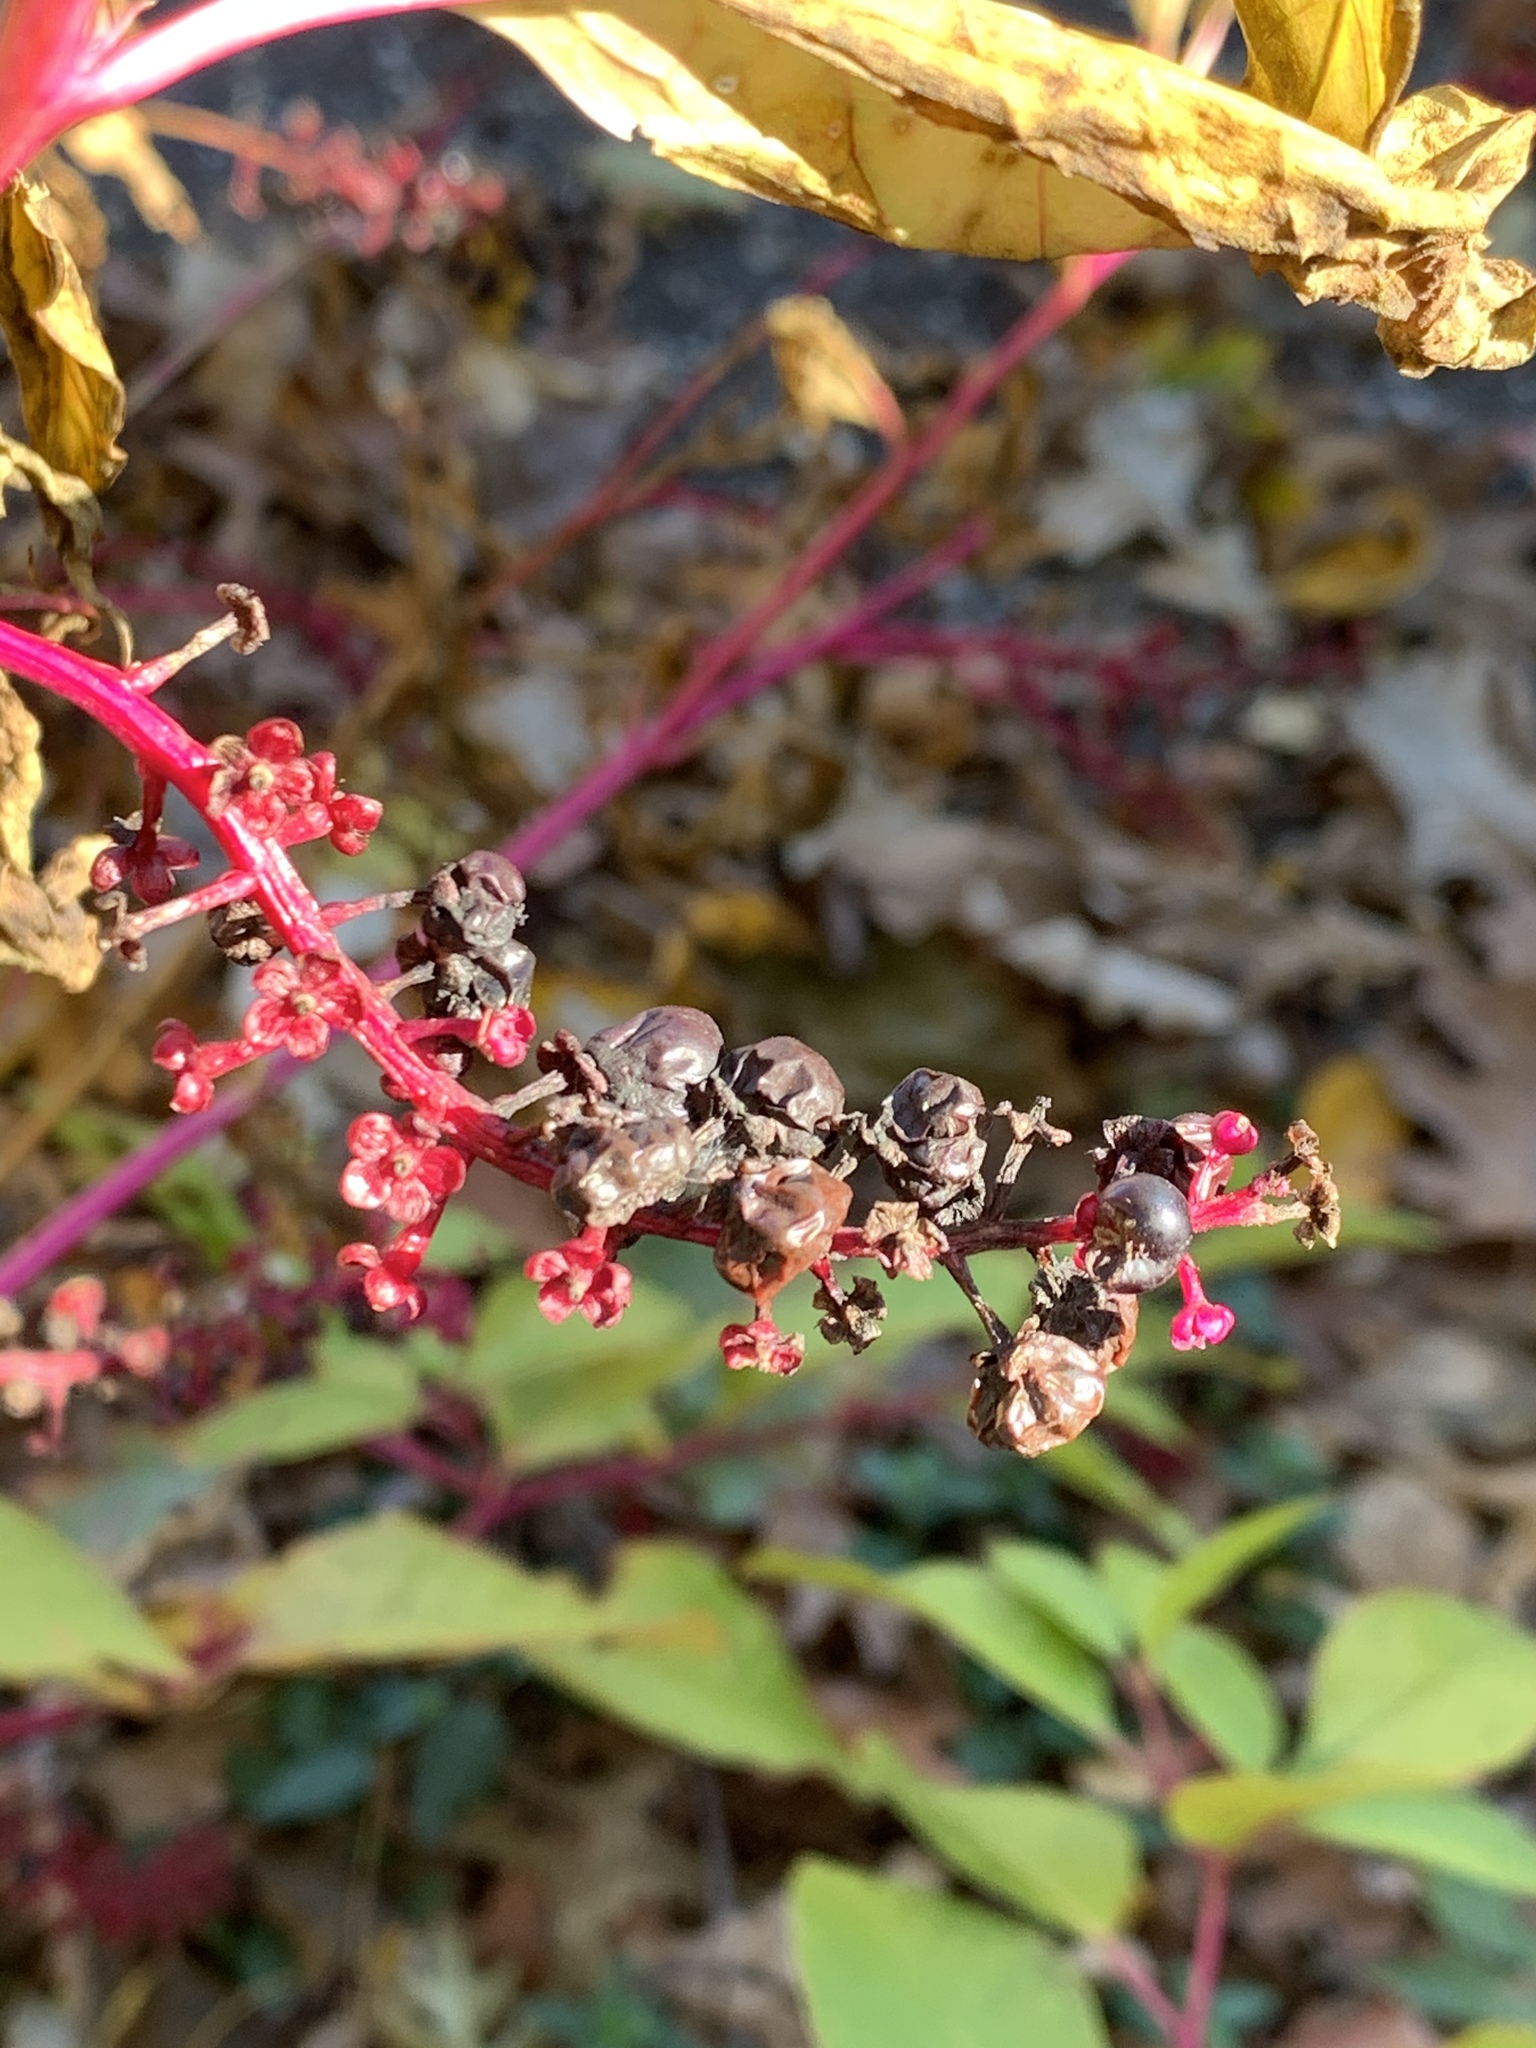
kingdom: Plantae
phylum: Tracheophyta
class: Magnoliopsida
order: Caryophyllales
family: Phytolaccaceae
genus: Phytolacca
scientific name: Phytolacca americana
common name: American pokeweed
